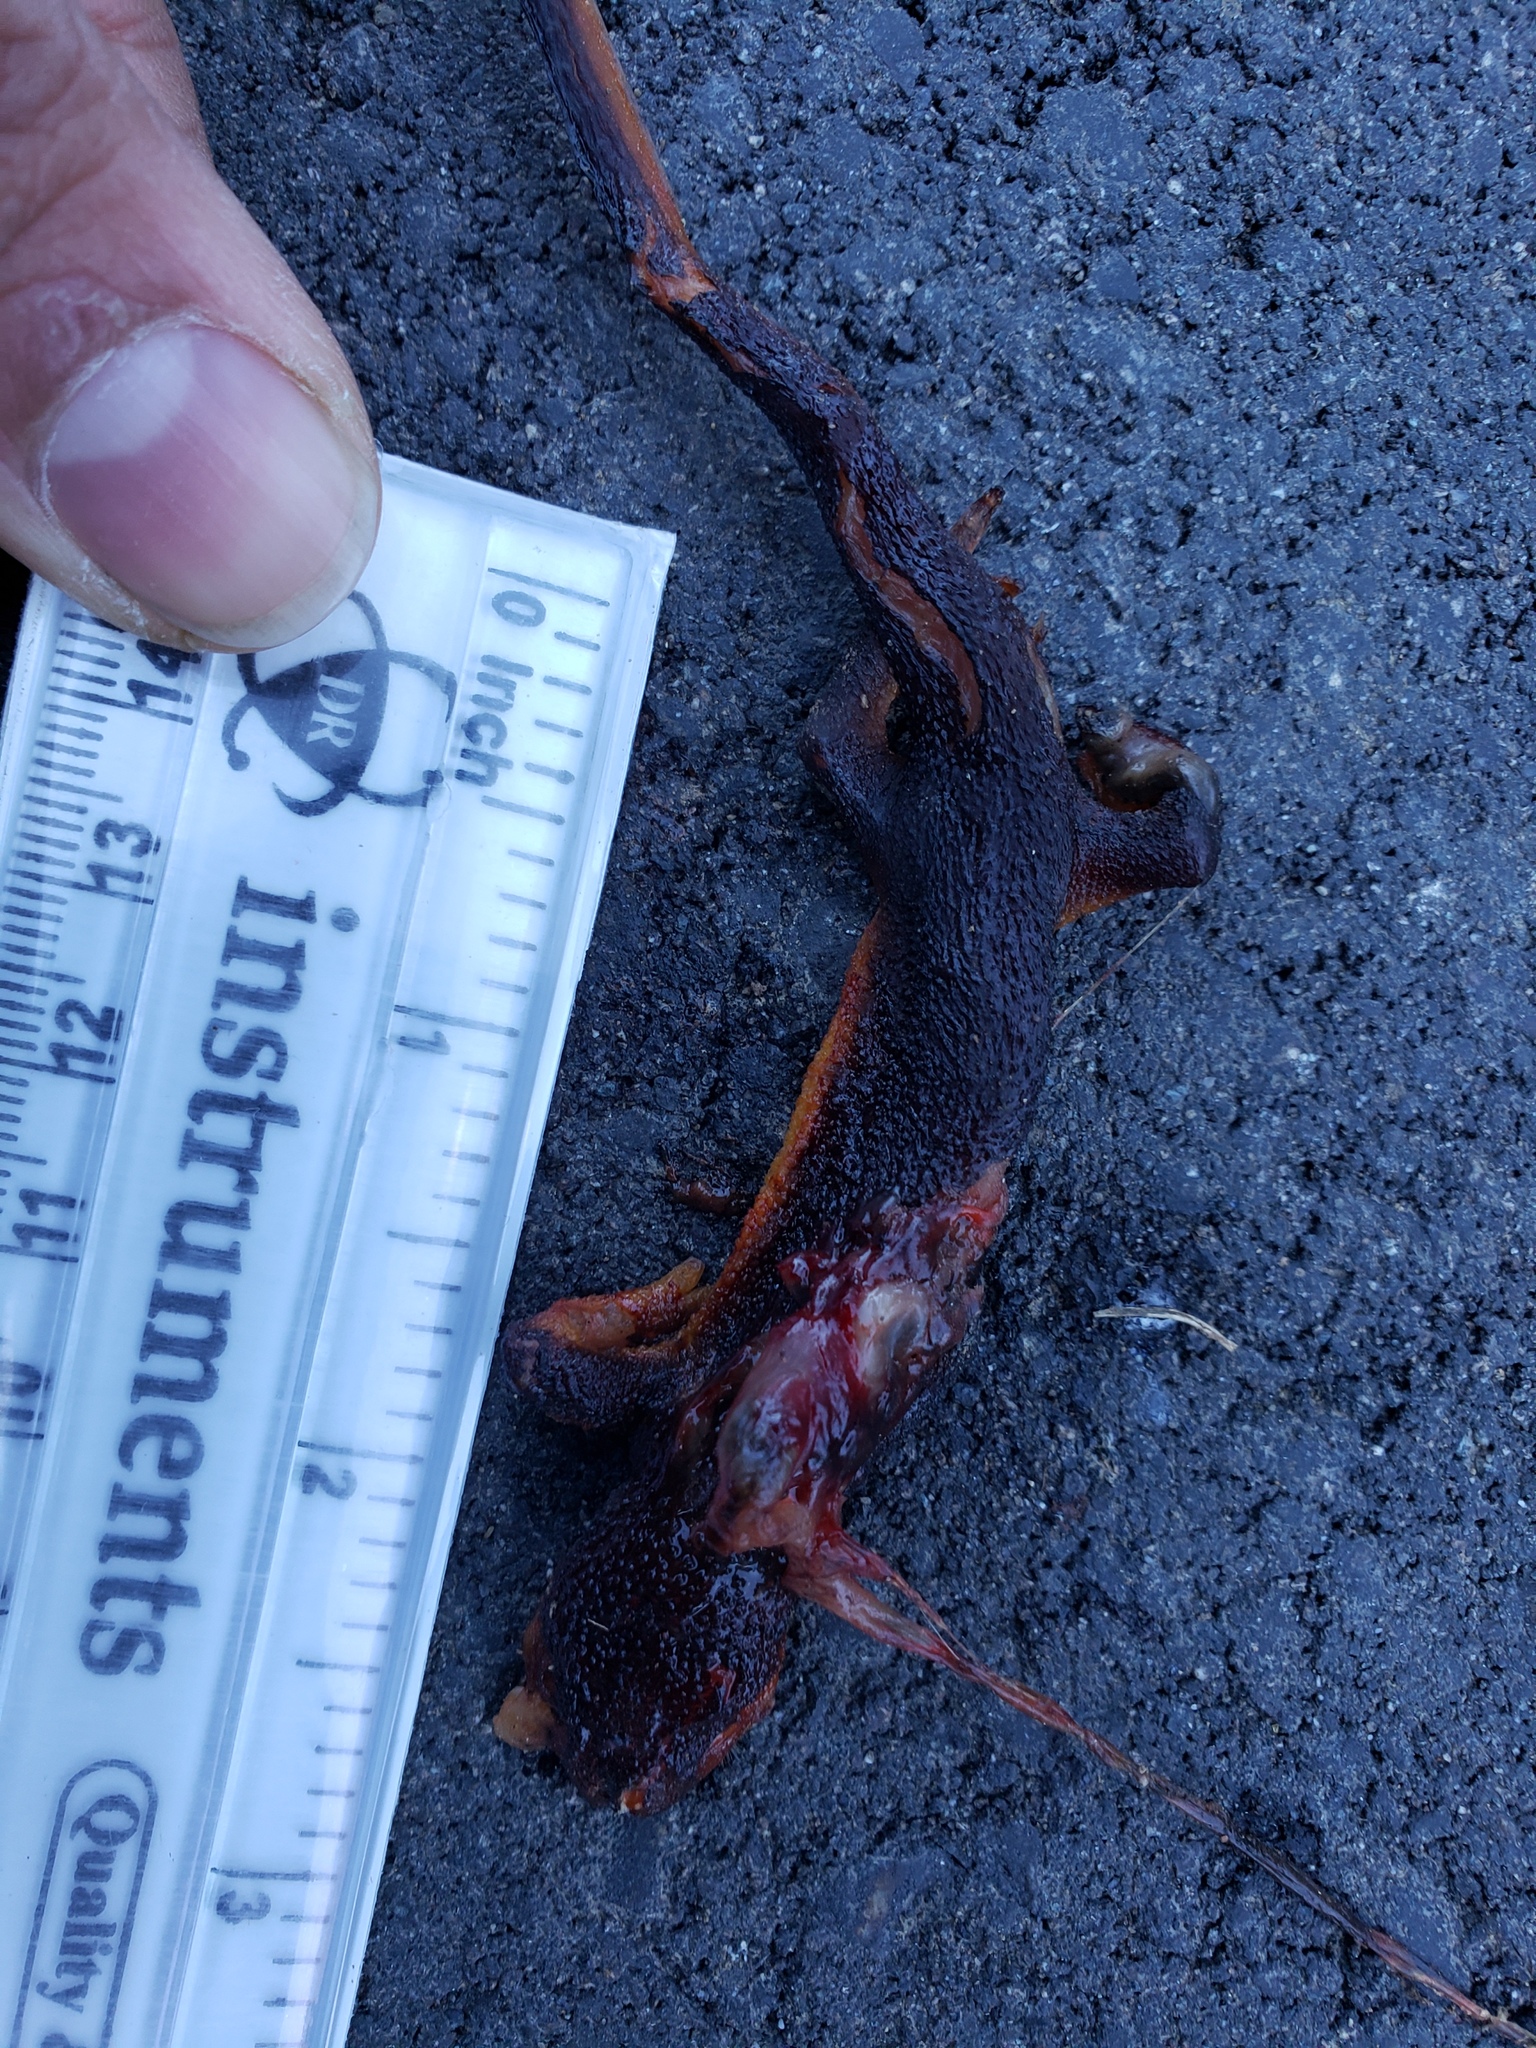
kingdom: Animalia
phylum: Chordata
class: Amphibia
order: Caudata
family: Salamandridae
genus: Taricha
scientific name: Taricha granulosa
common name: Roughskin newt
